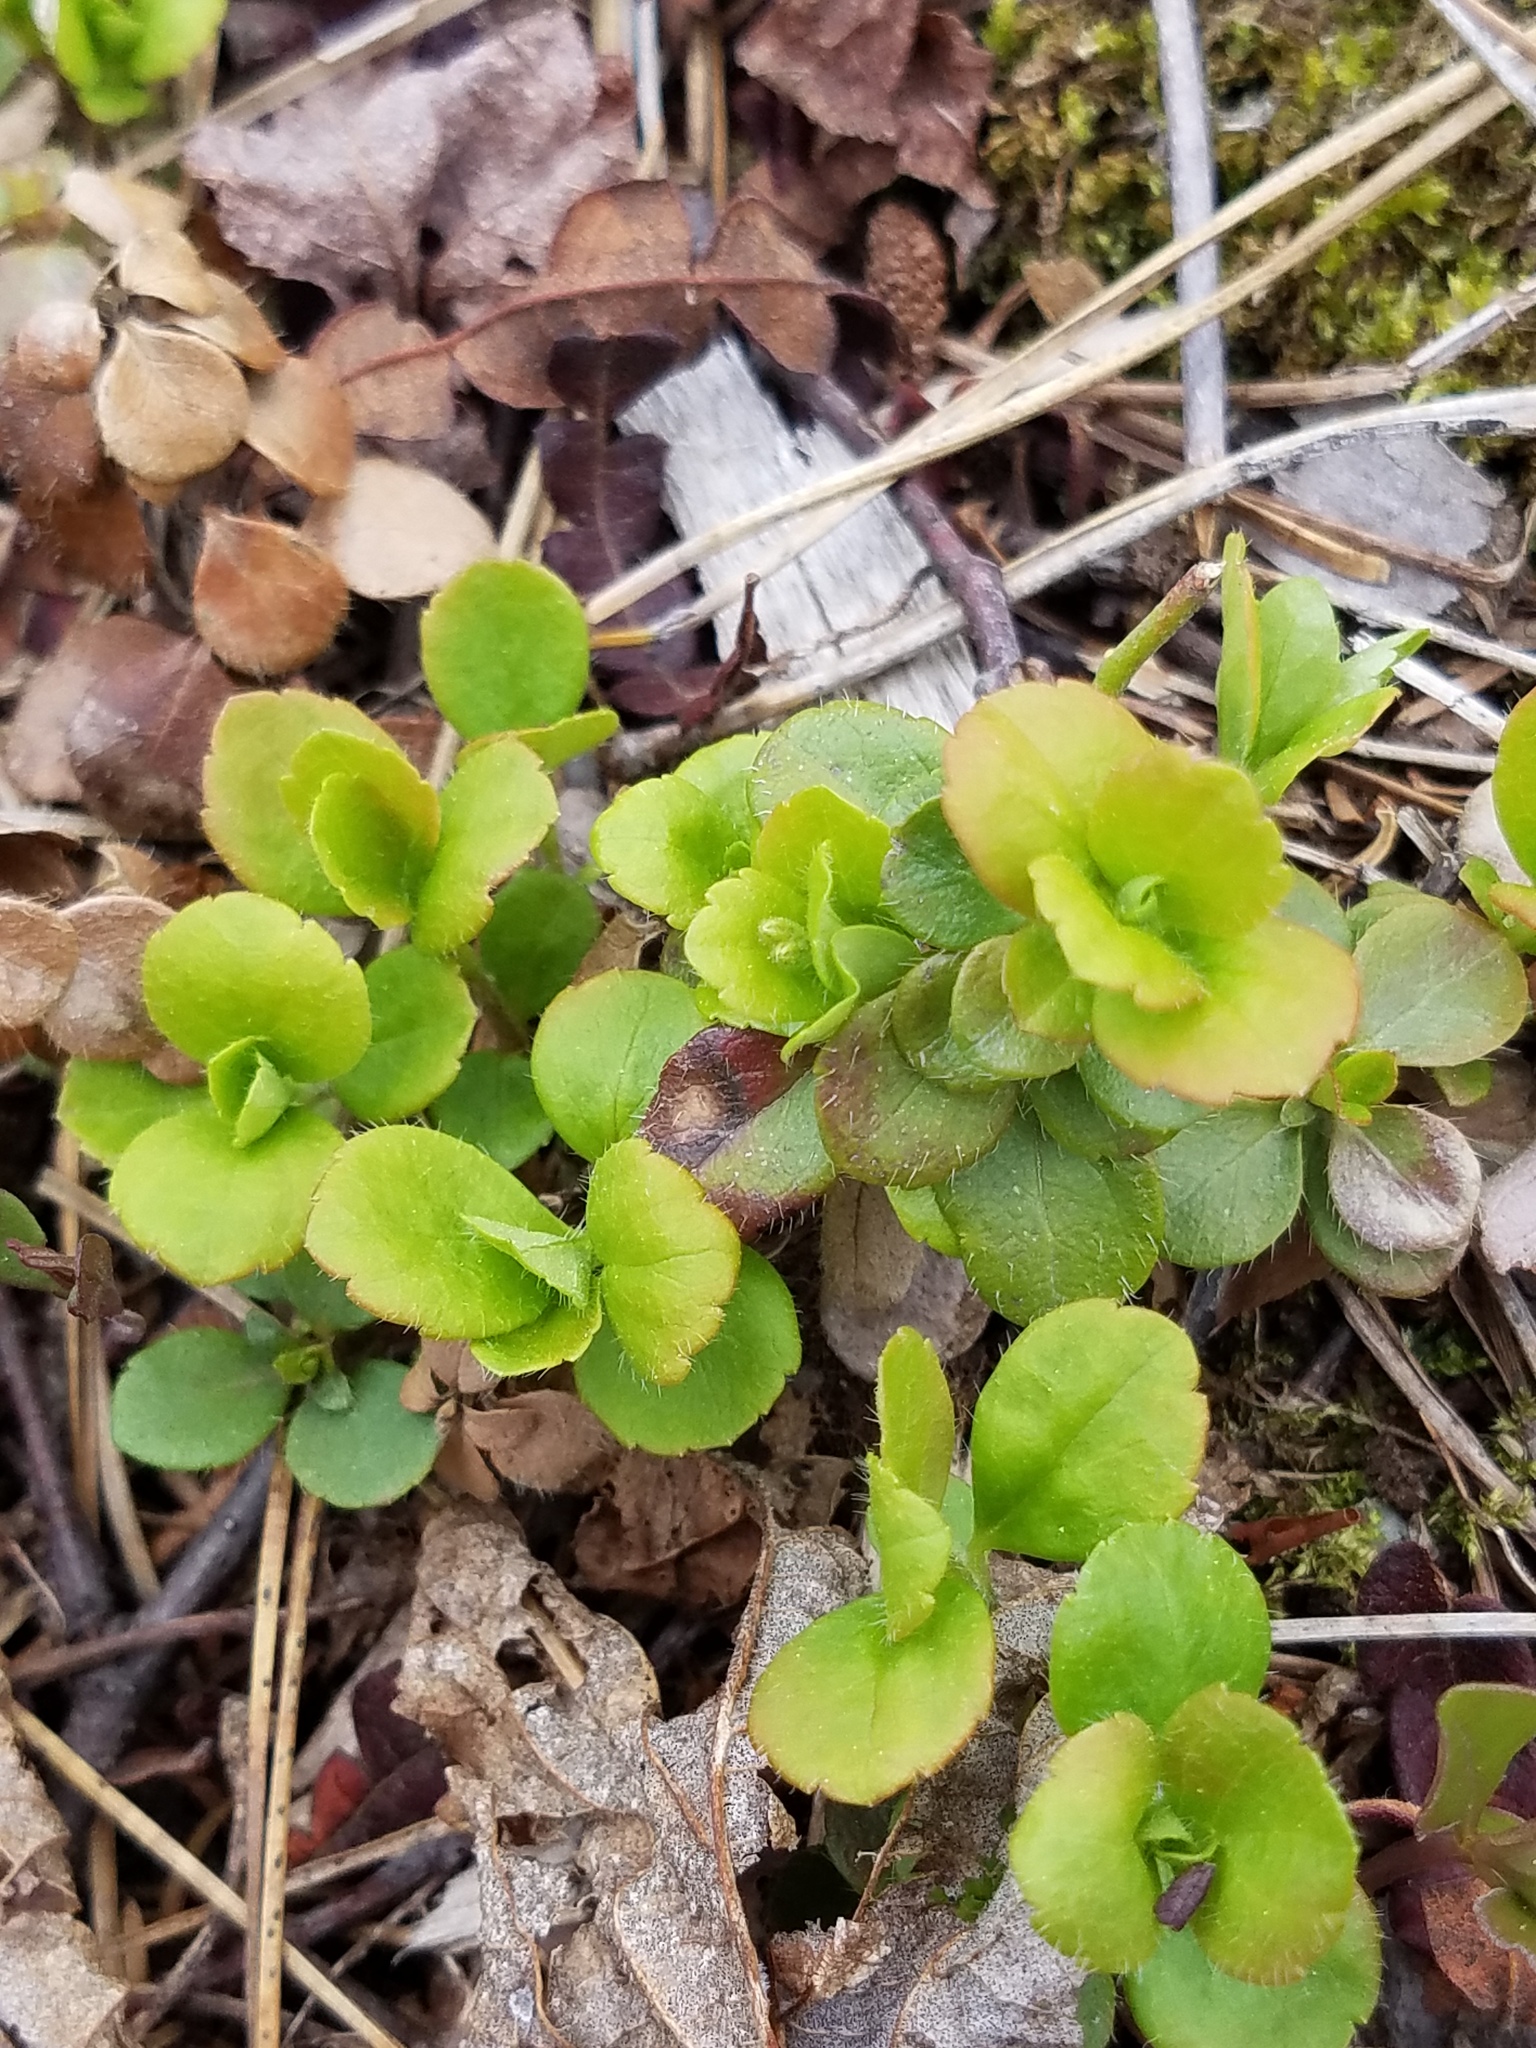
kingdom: Plantae
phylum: Tracheophyta
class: Magnoliopsida
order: Dipsacales
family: Caprifoliaceae
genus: Linnaea
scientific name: Linnaea borealis
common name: Twinflower
